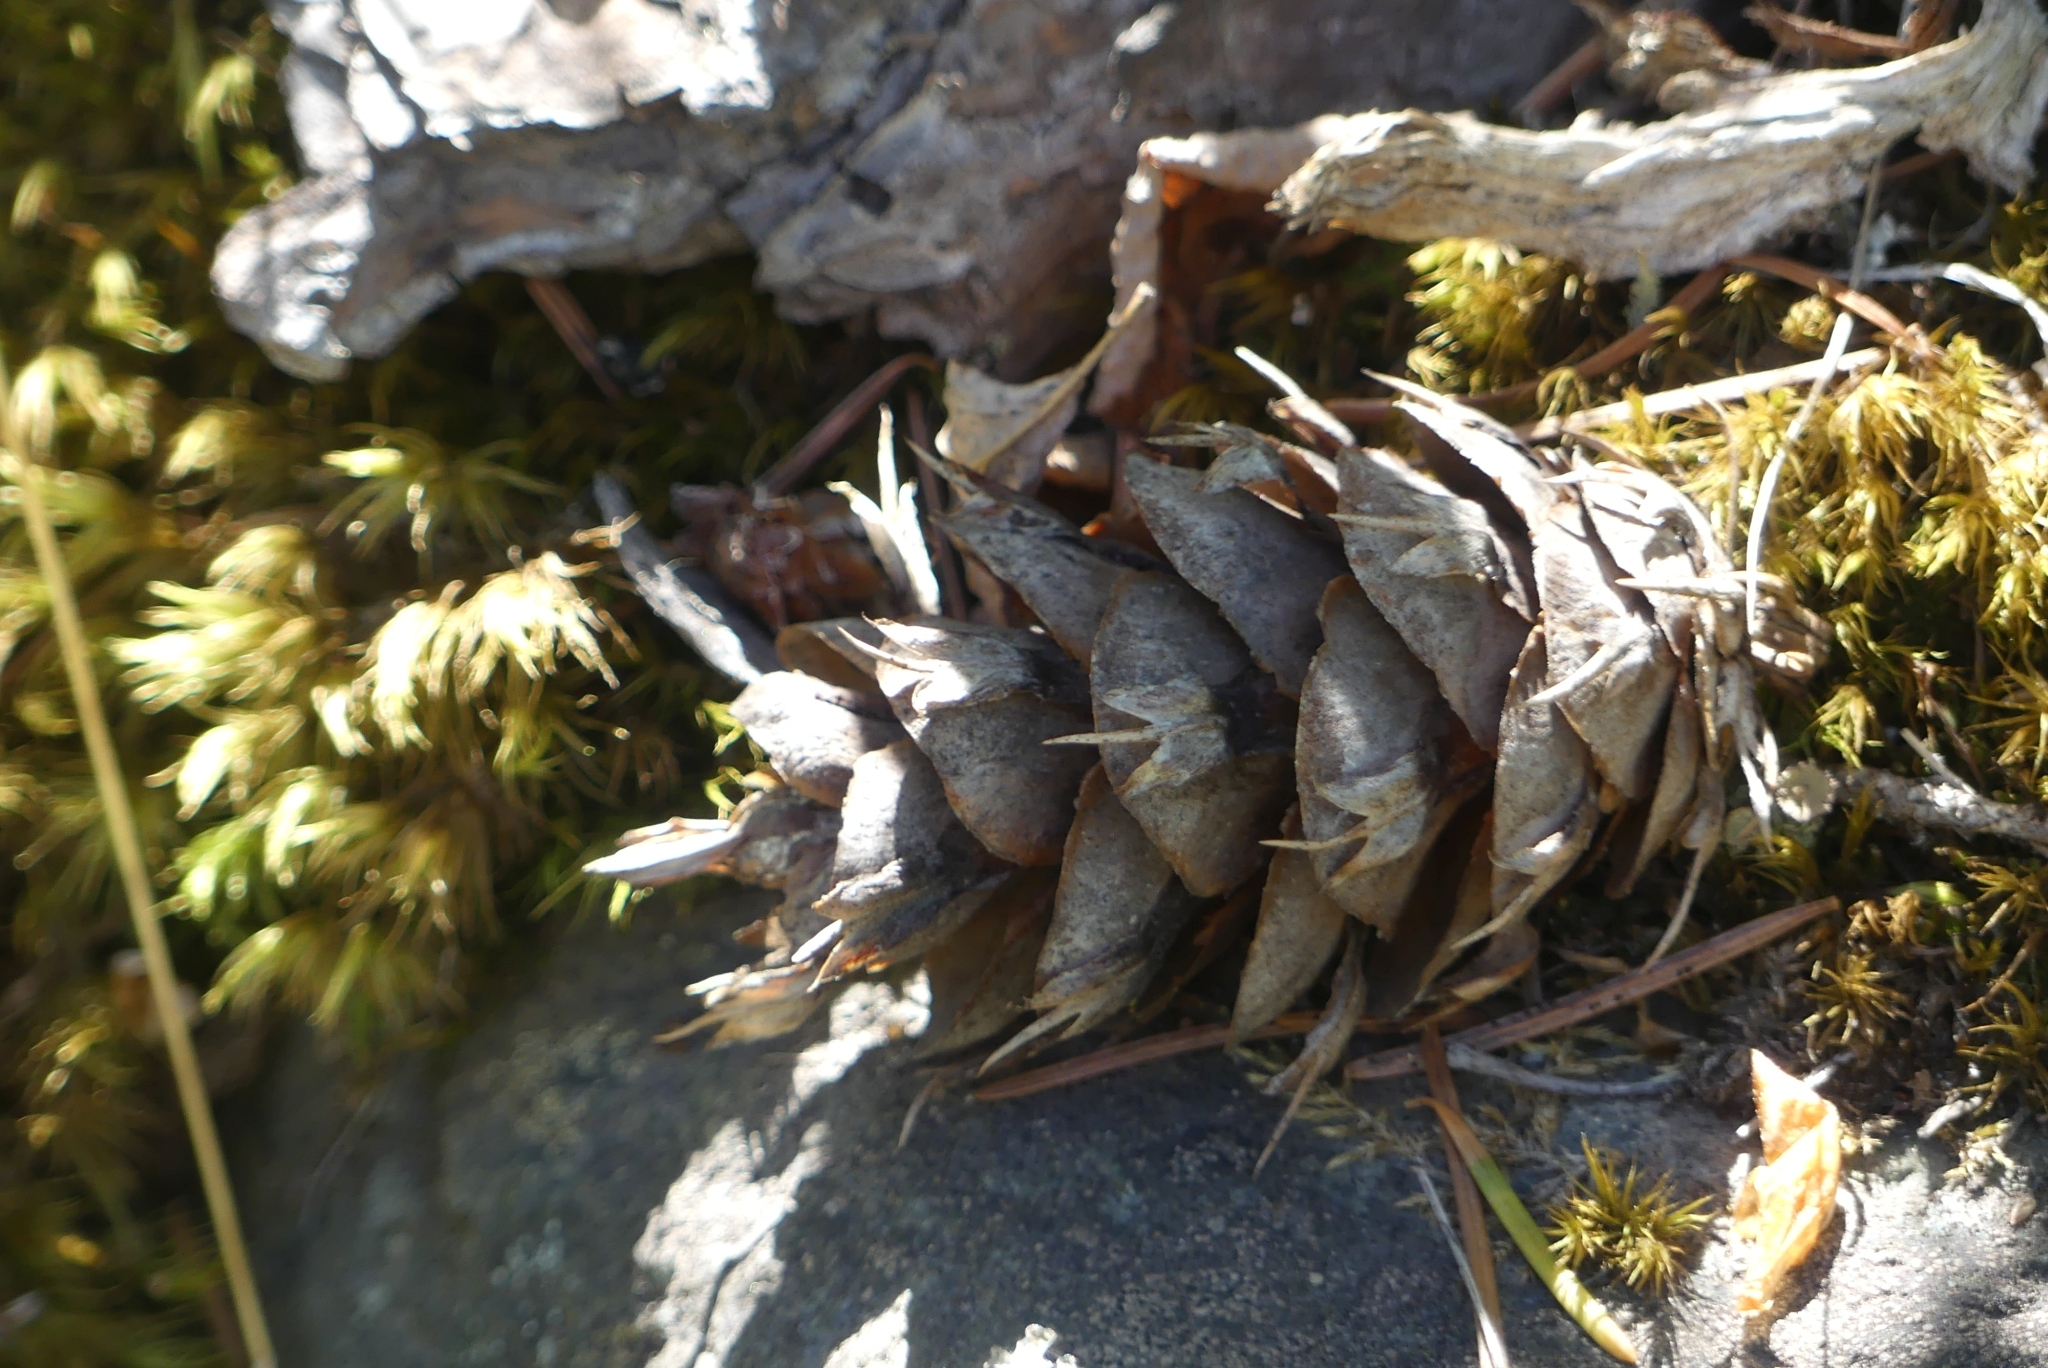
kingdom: Plantae
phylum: Tracheophyta
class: Pinopsida
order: Pinales
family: Pinaceae
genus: Pseudotsuga
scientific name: Pseudotsuga menziesii
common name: Douglas fir
